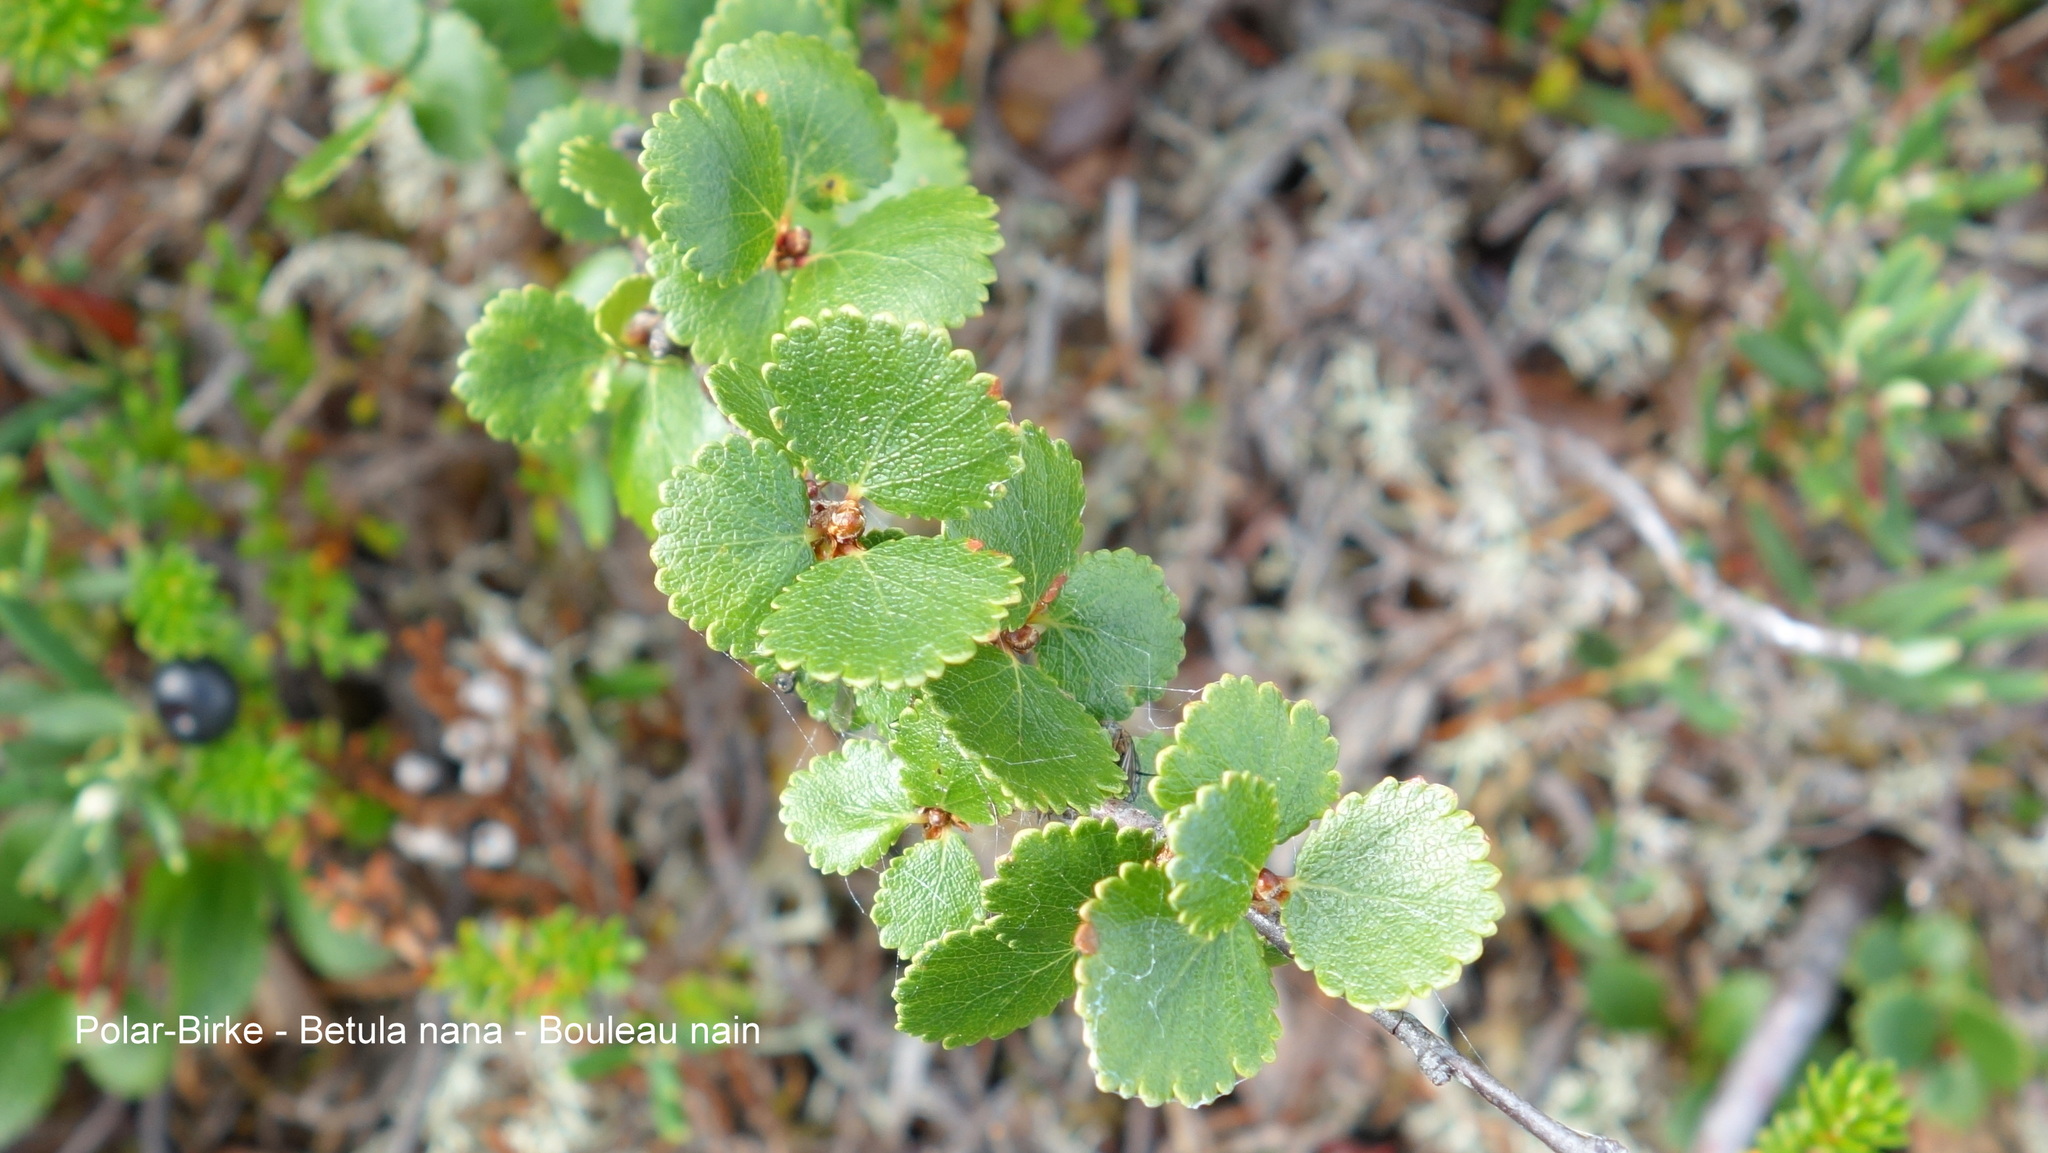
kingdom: Plantae
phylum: Tracheophyta
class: Magnoliopsida
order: Fagales
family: Betulaceae
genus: Betula
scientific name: Betula nana
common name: Arctic dwarf birch
